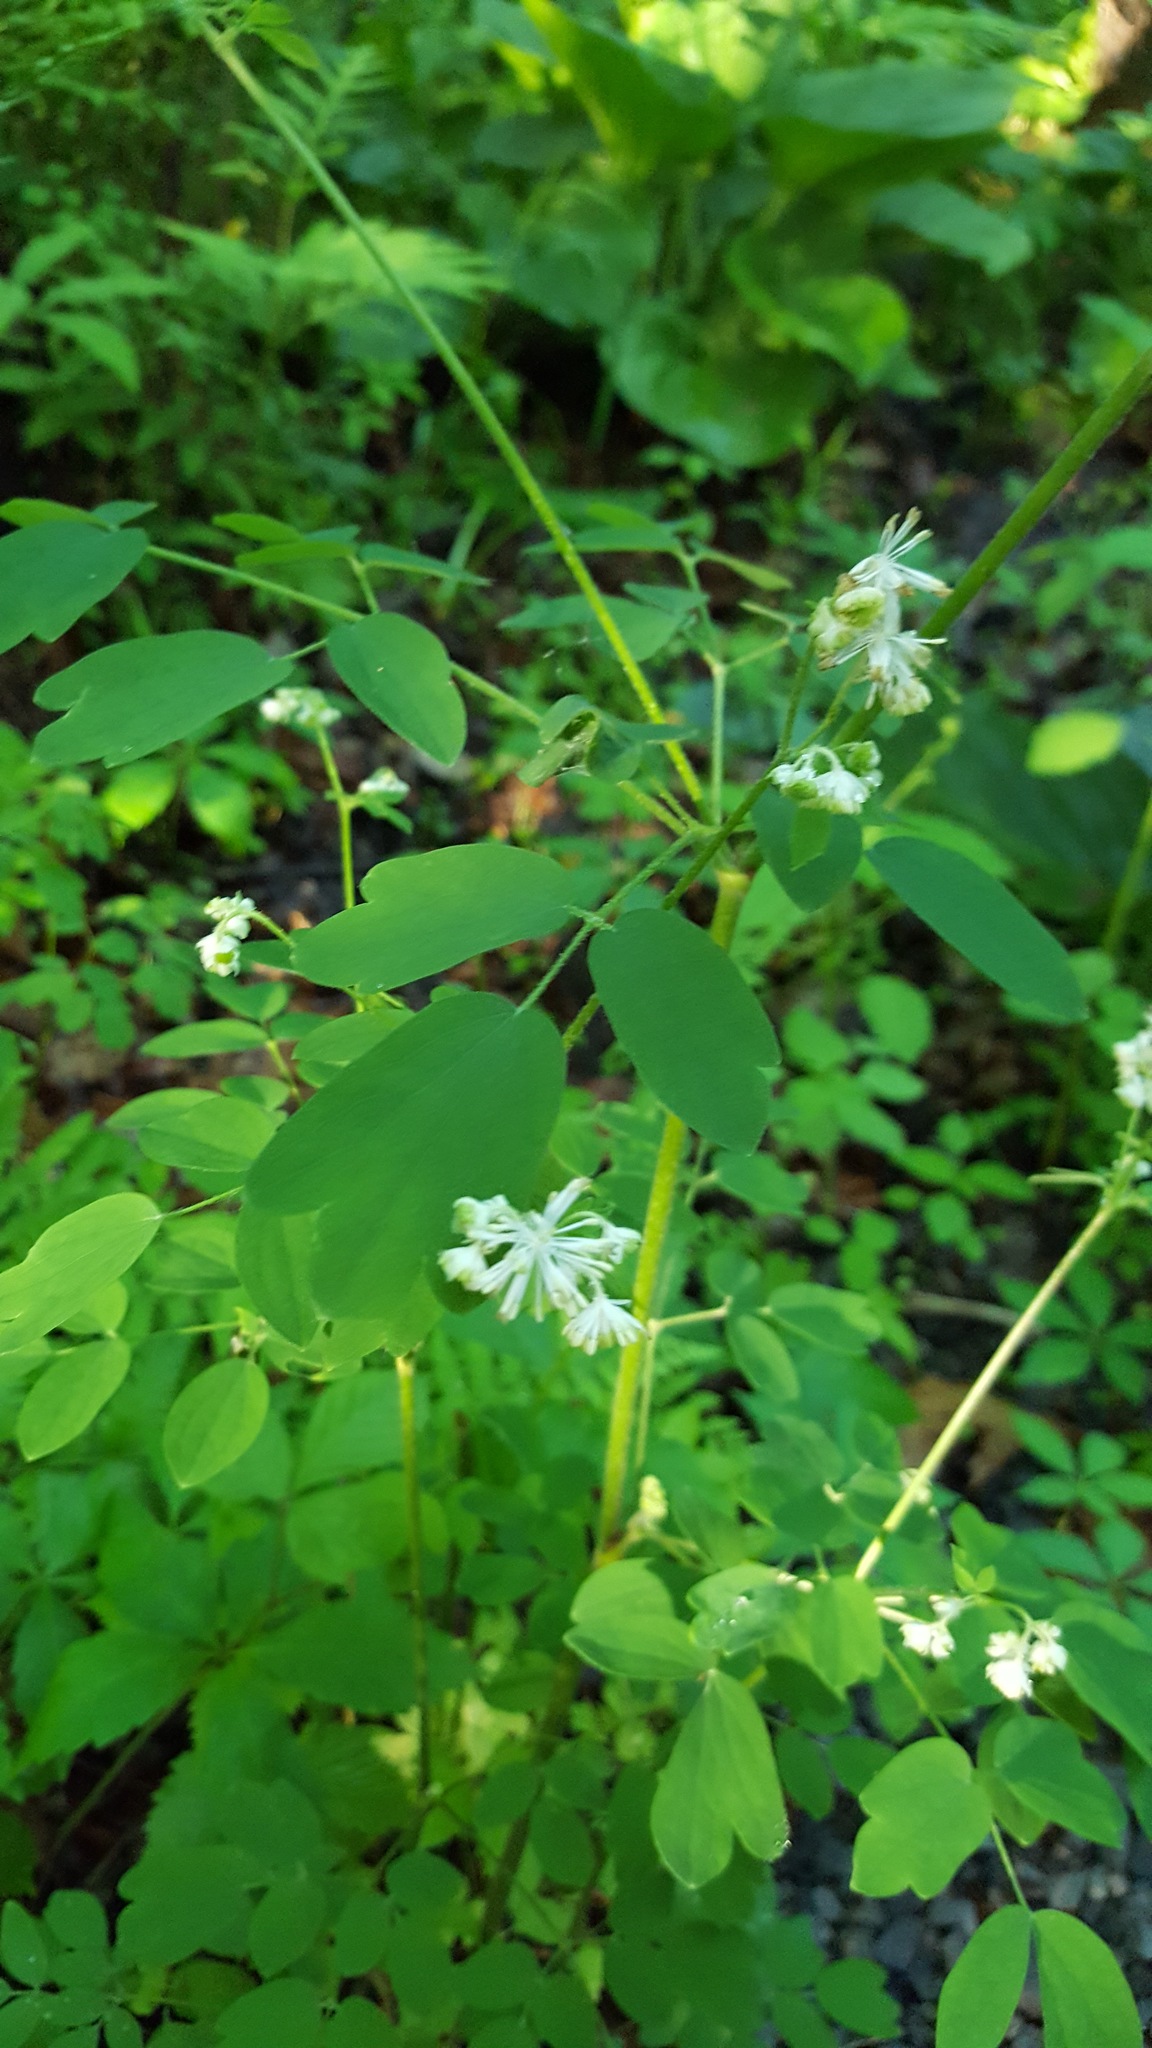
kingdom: Plantae
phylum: Tracheophyta
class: Magnoliopsida
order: Ranunculales
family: Ranunculaceae
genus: Thalictrum
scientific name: Thalictrum pubescens
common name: King-of-the-meadow
